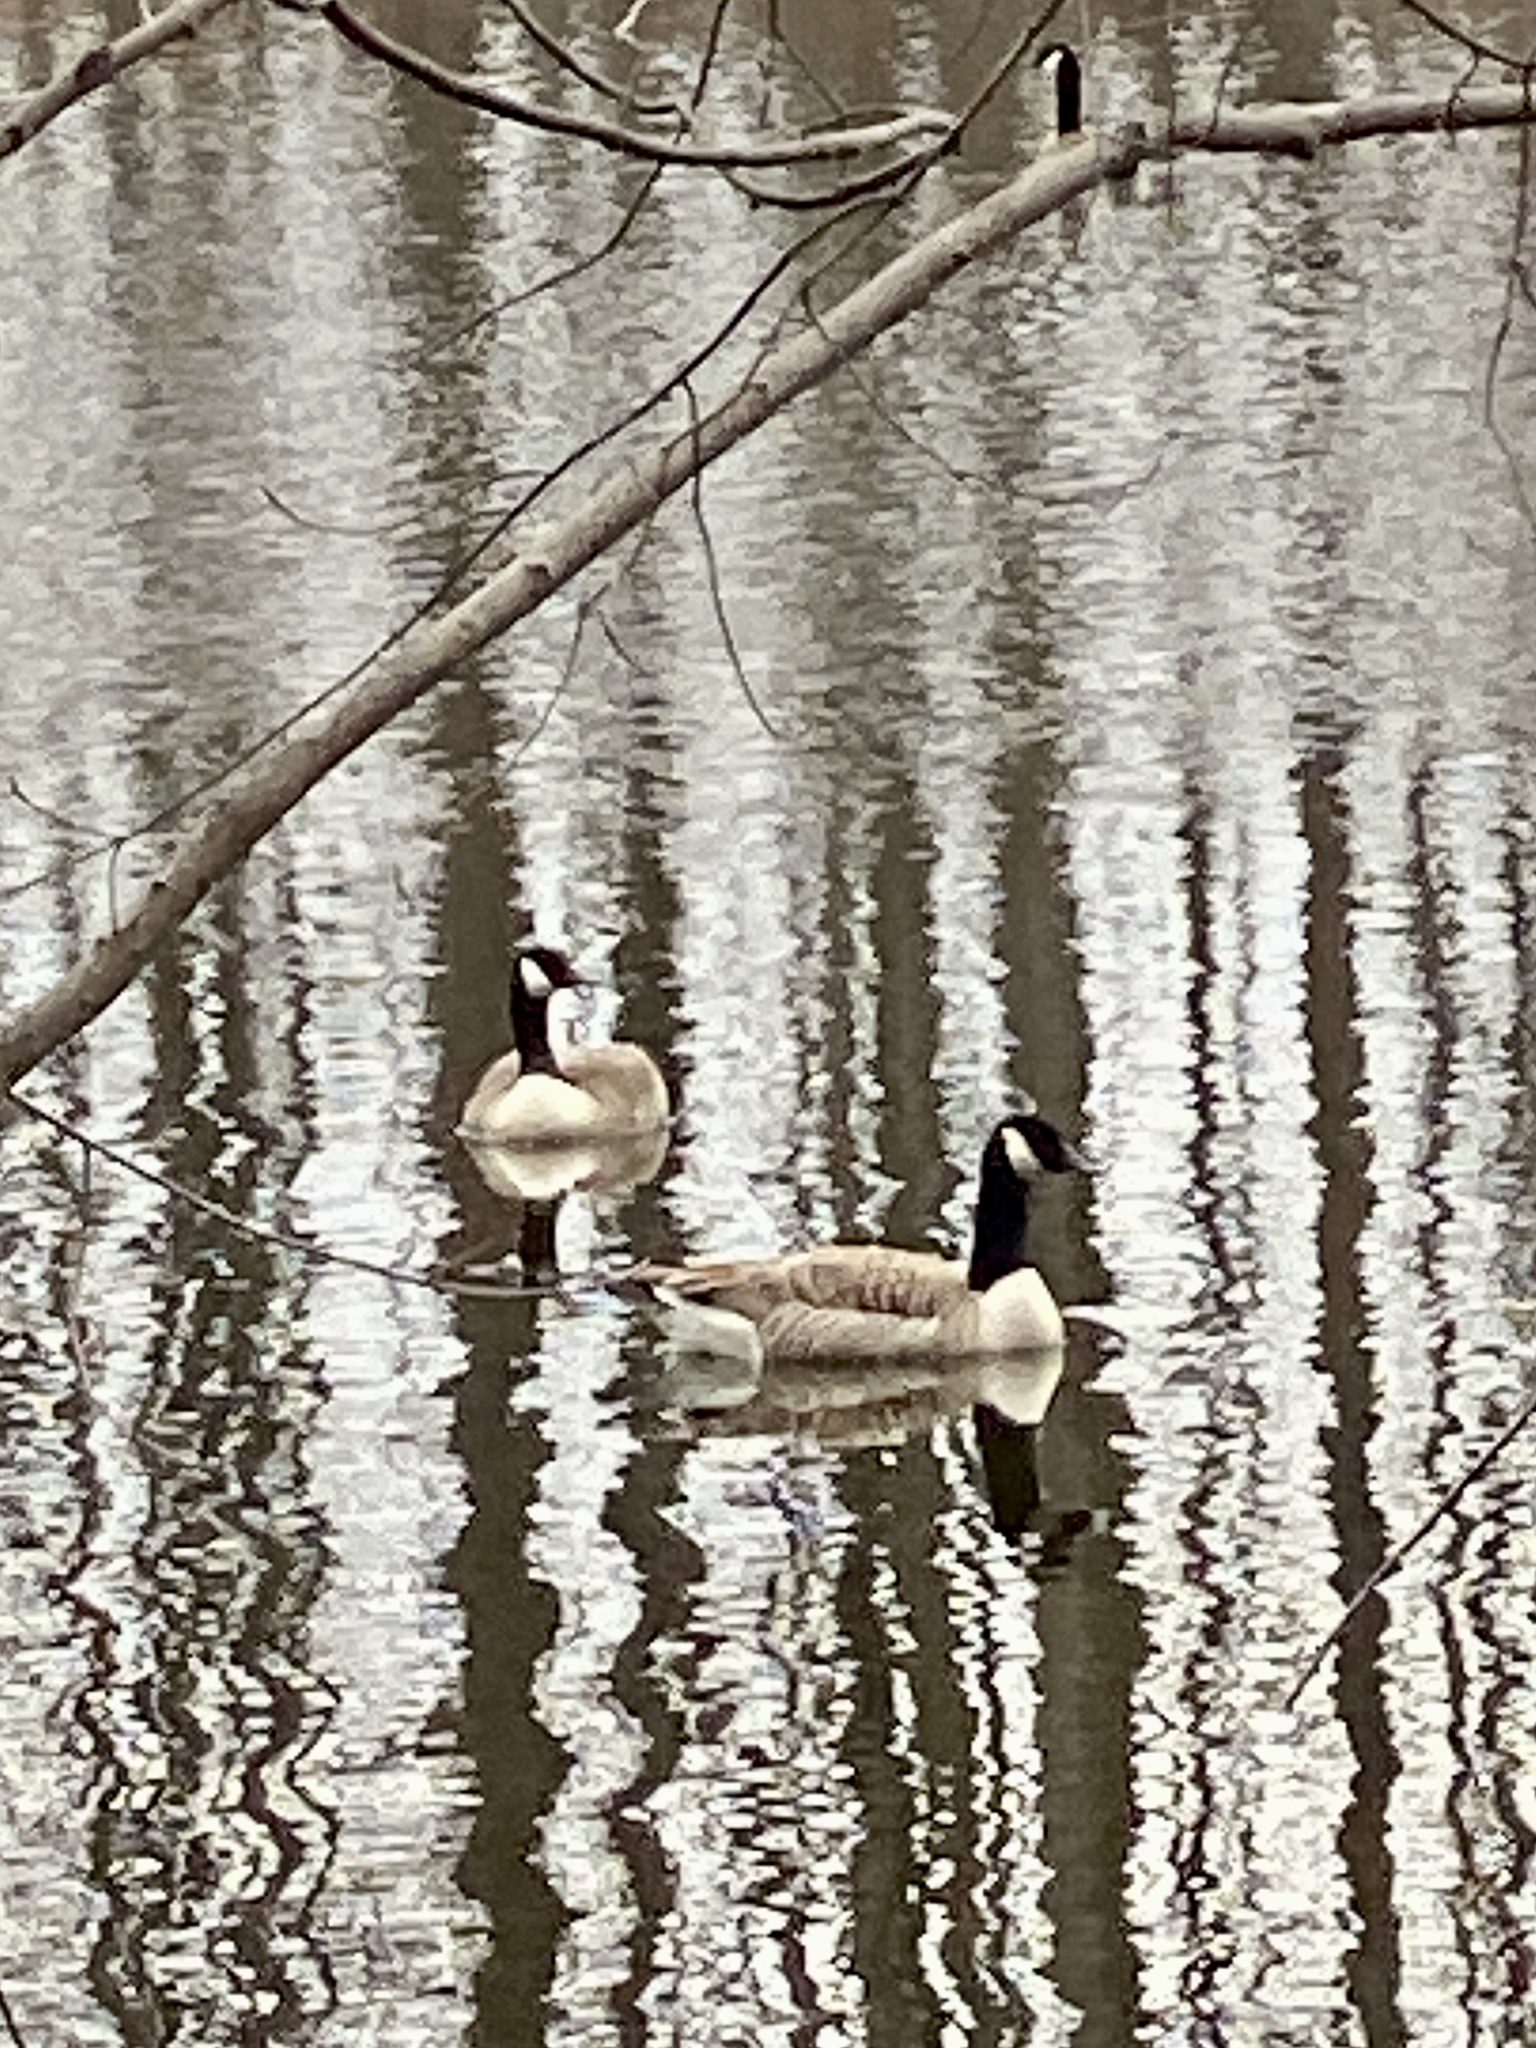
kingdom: Animalia
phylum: Chordata
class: Aves
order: Anseriformes
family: Anatidae
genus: Branta
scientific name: Branta canadensis
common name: Canada goose
